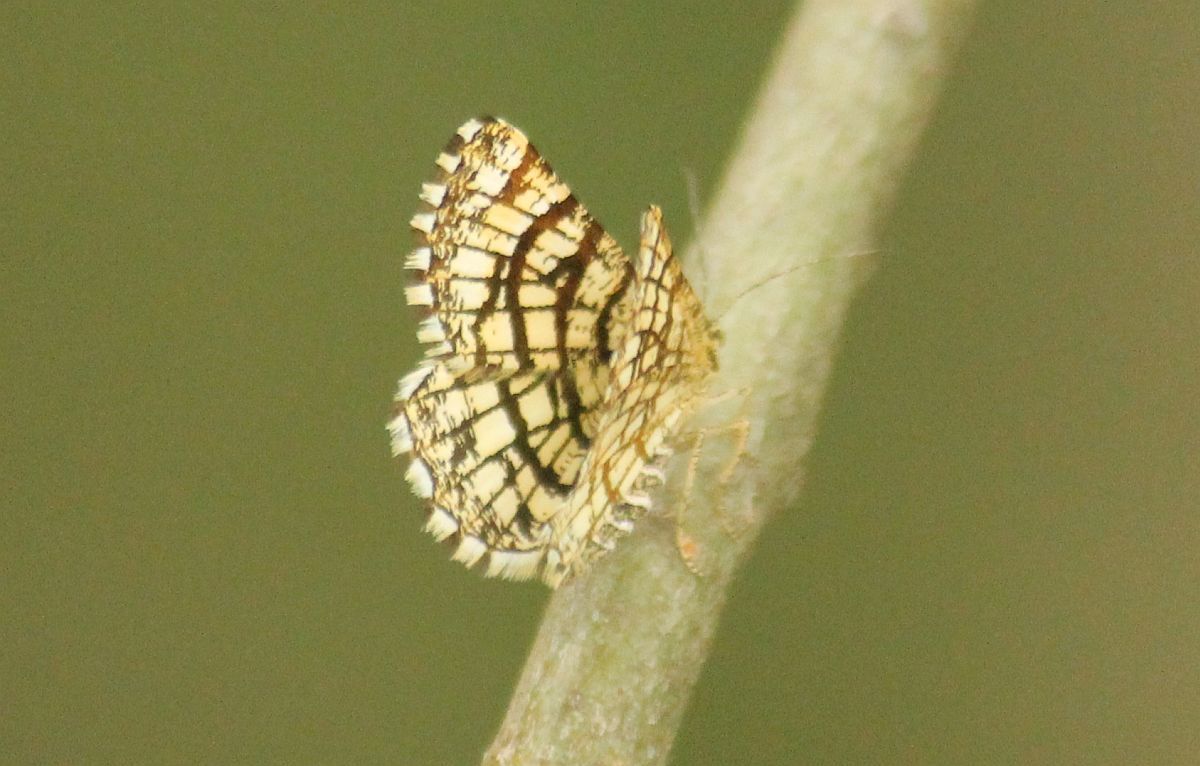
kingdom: Animalia
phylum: Arthropoda
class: Insecta
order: Lepidoptera
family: Geometridae
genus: Chiasmia
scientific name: Chiasmia clathrata
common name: Latticed heath
